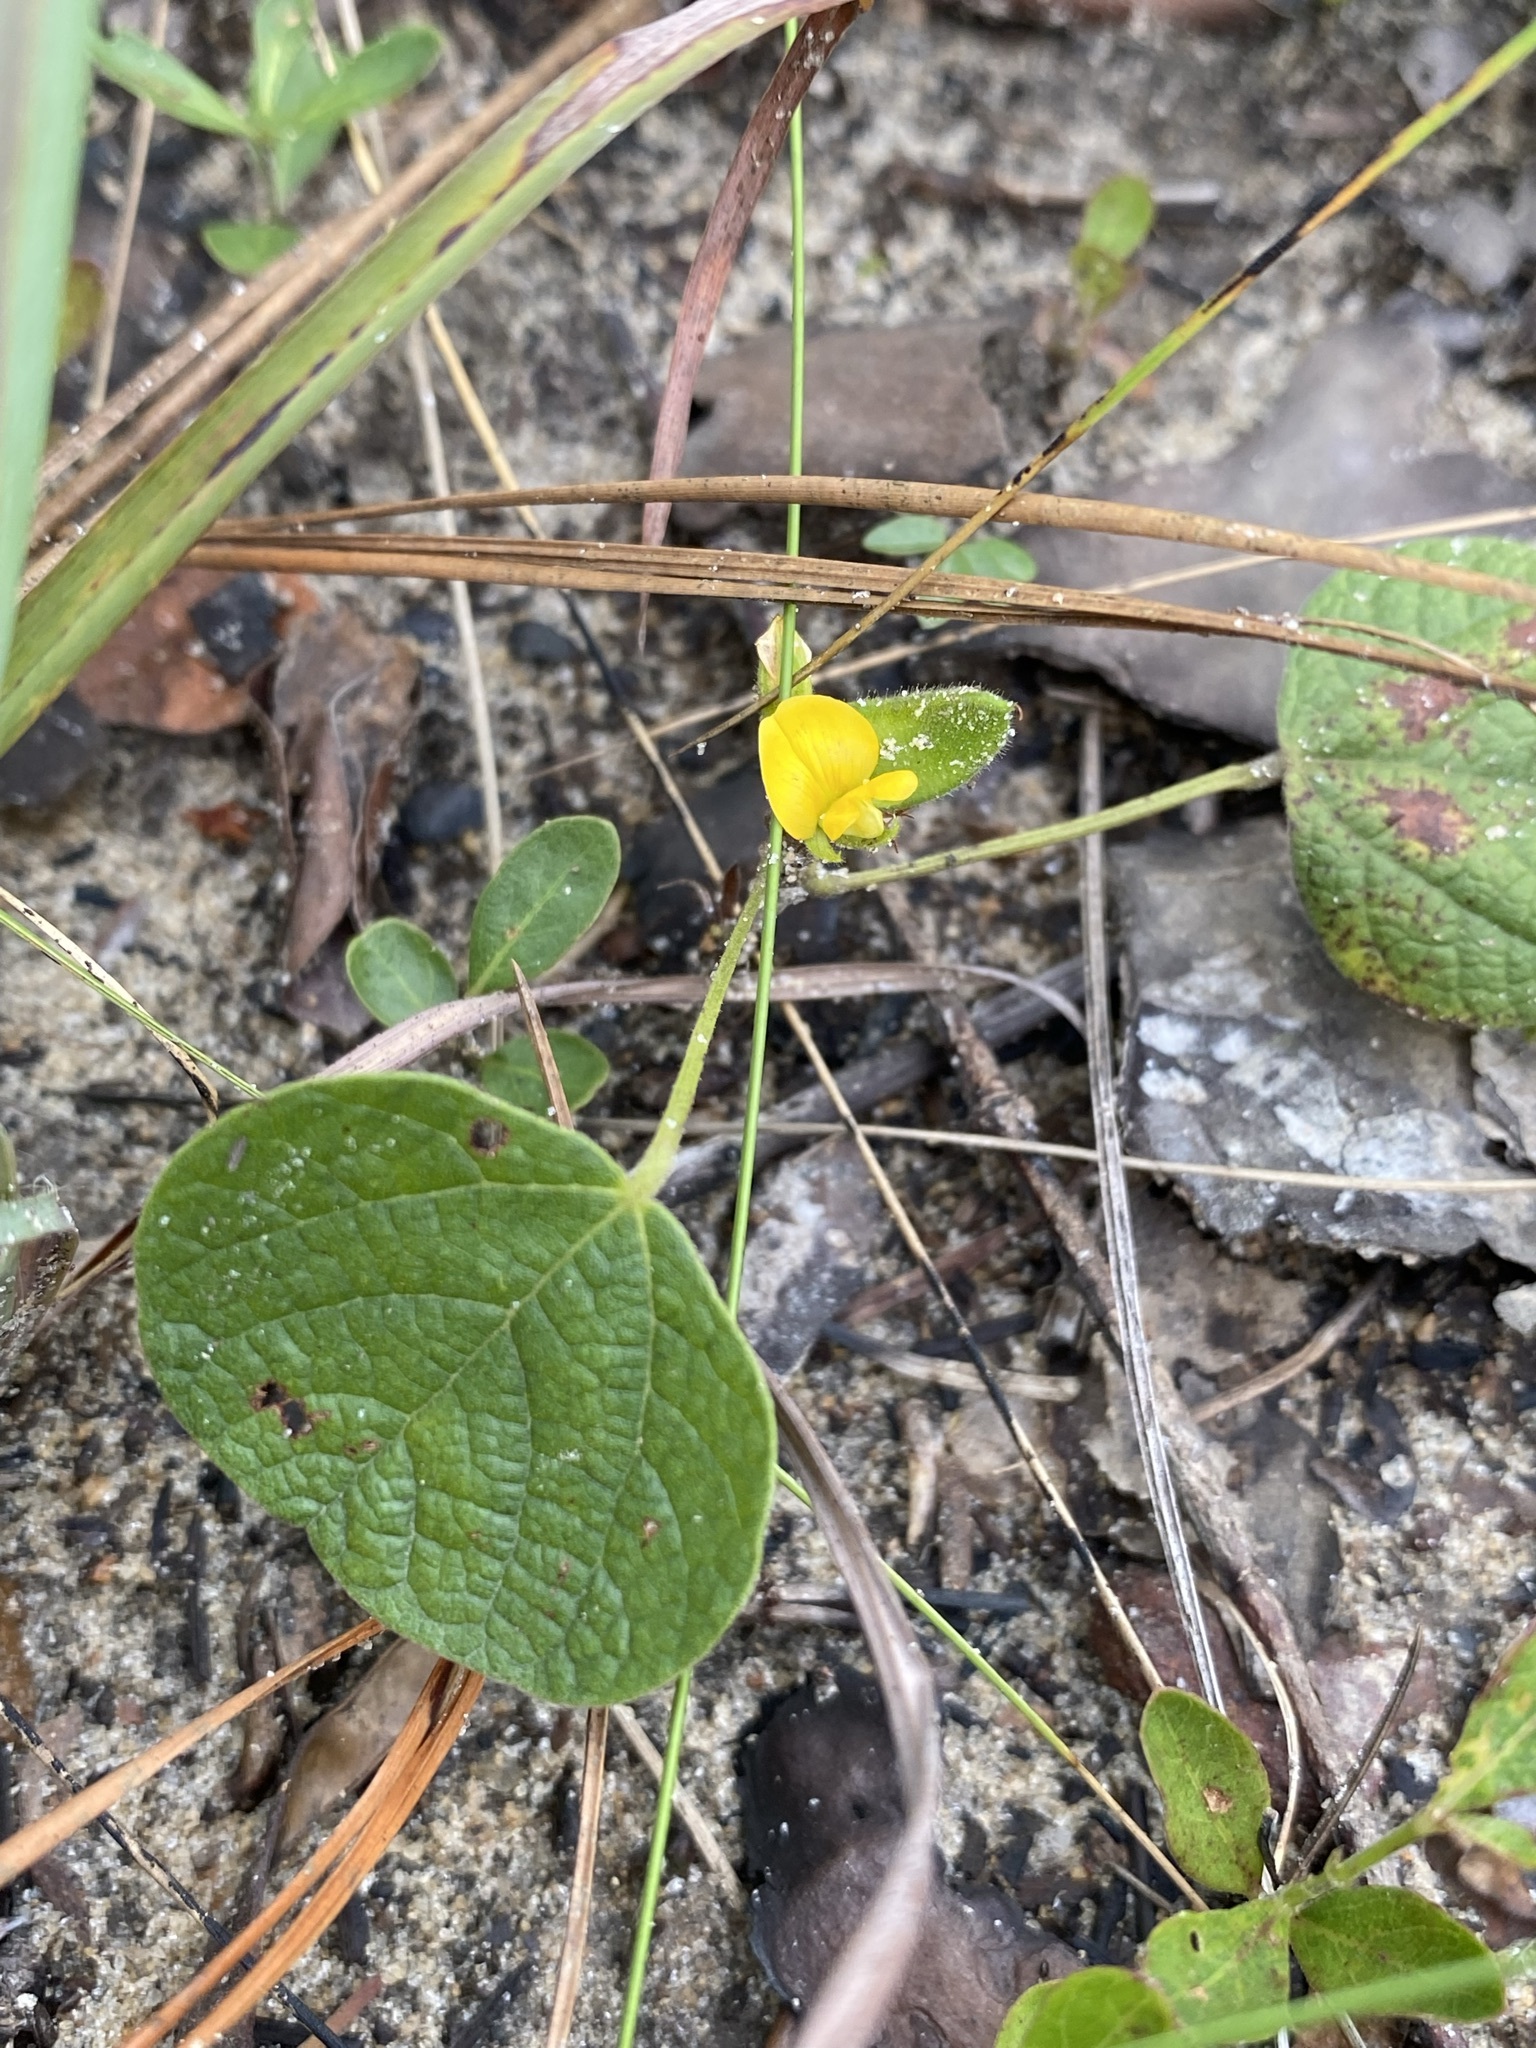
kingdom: Plantae
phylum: Tracheophyta
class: Magnoliopsida
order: Fabales
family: Fabaceae
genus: Rhynchosia
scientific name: Rhynchosia reniformis
